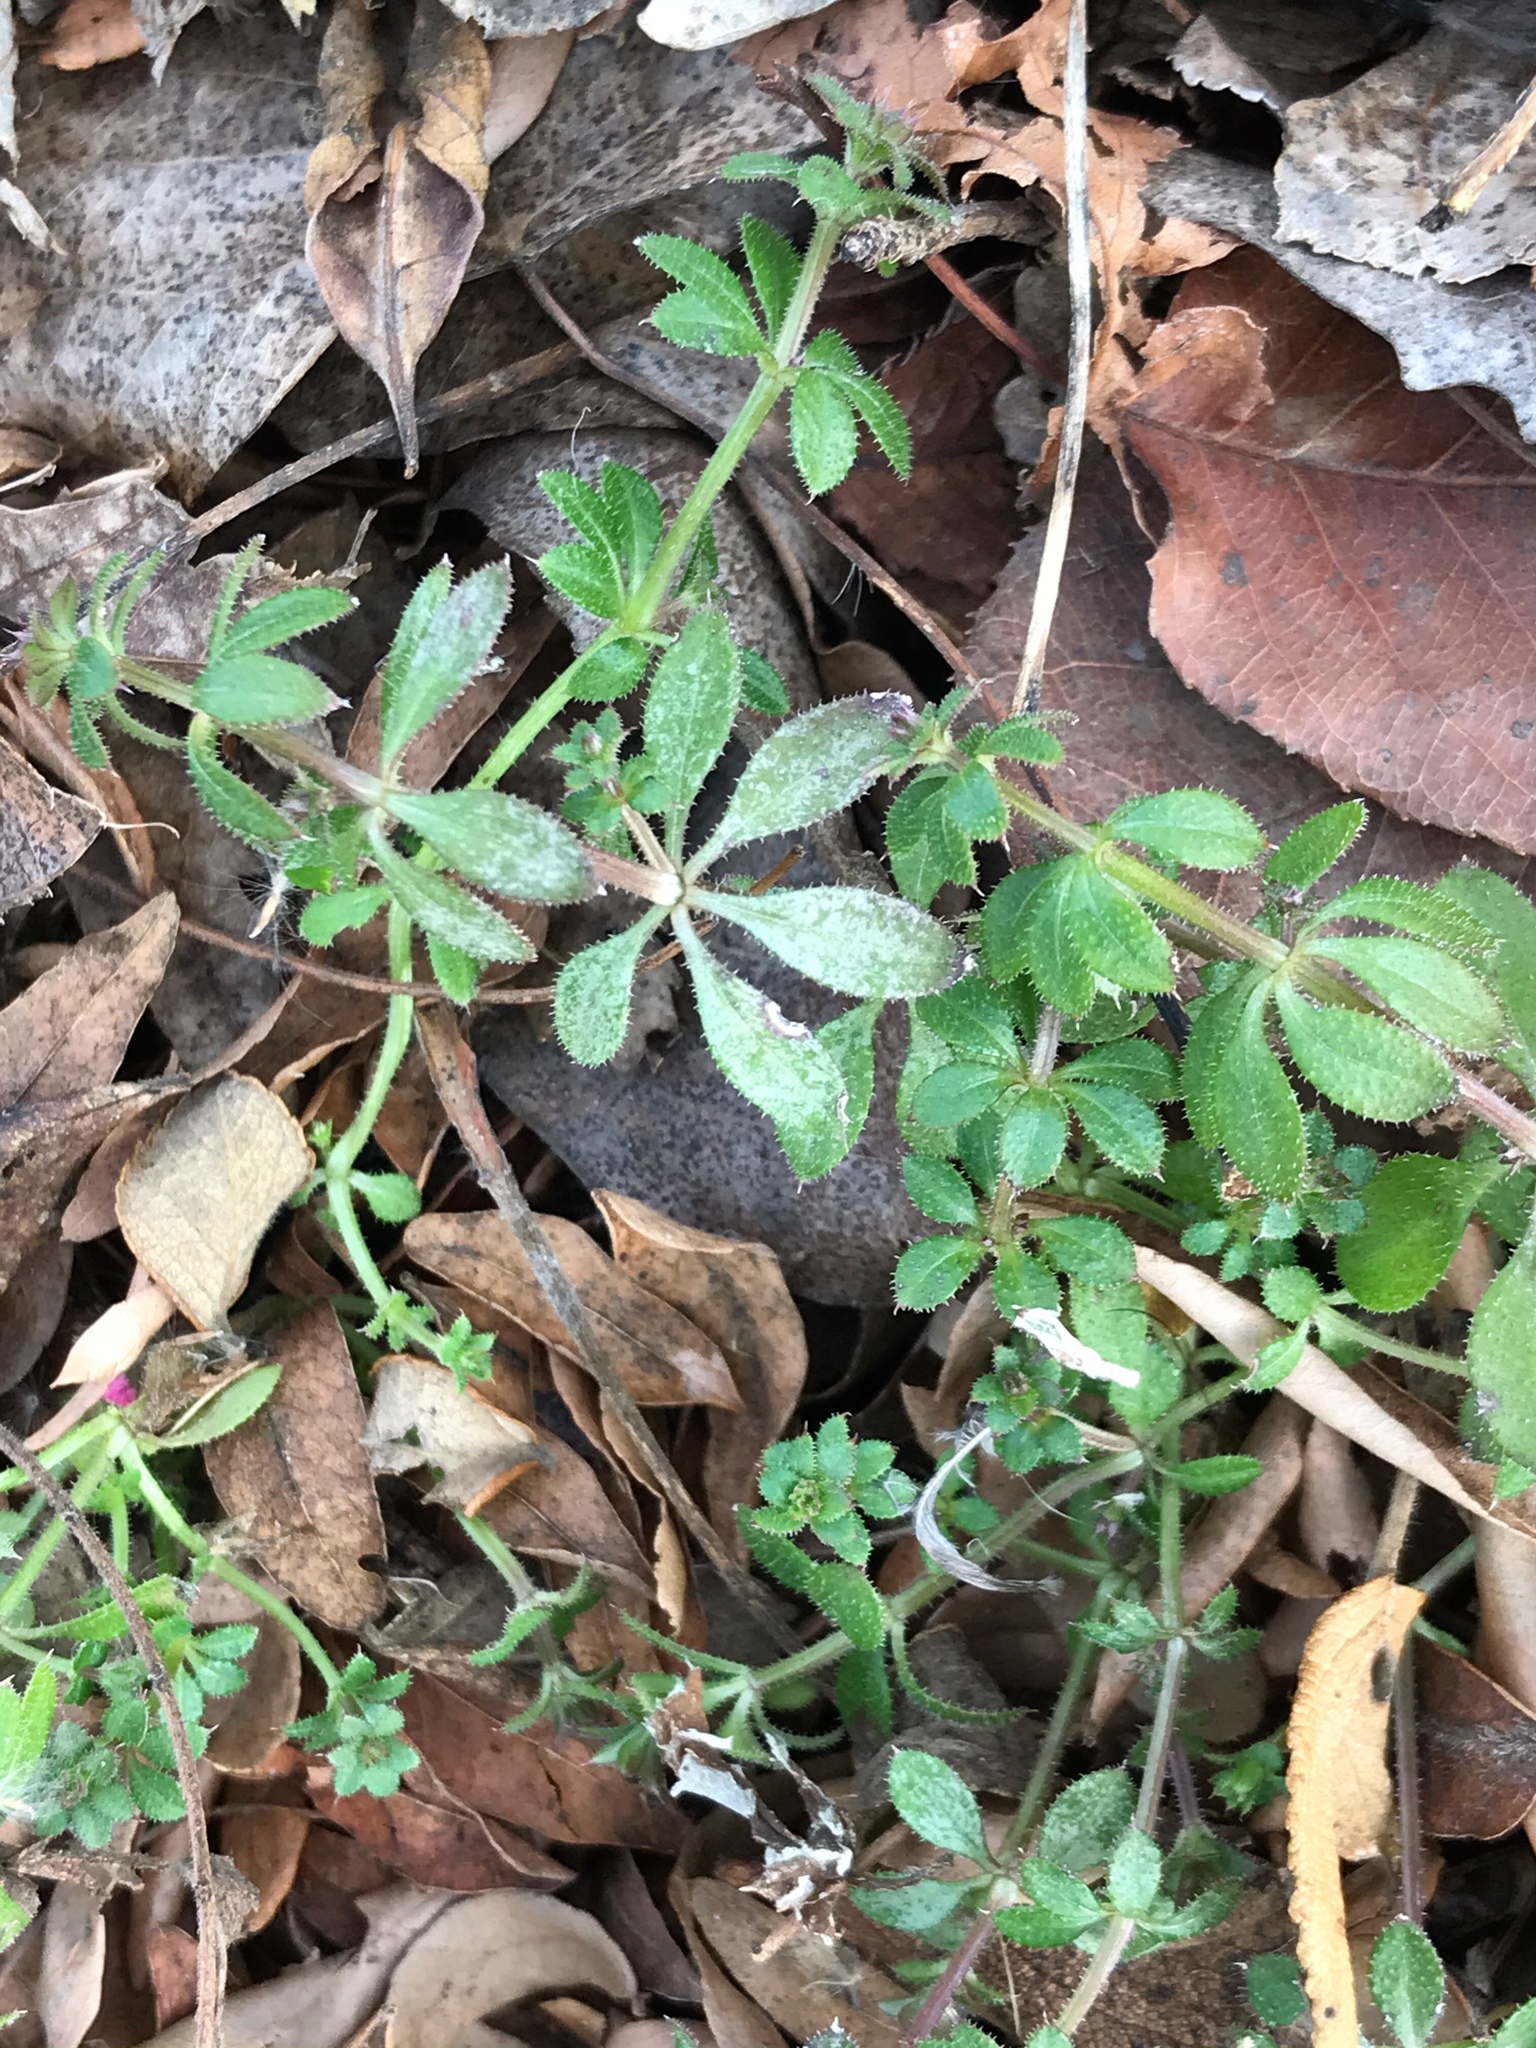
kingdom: Plantae
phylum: Tracheophyta
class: Magnoliopsida
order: Gentianales
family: Rubiaceae
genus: Galium
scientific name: Galium aparine
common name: Cleavers
